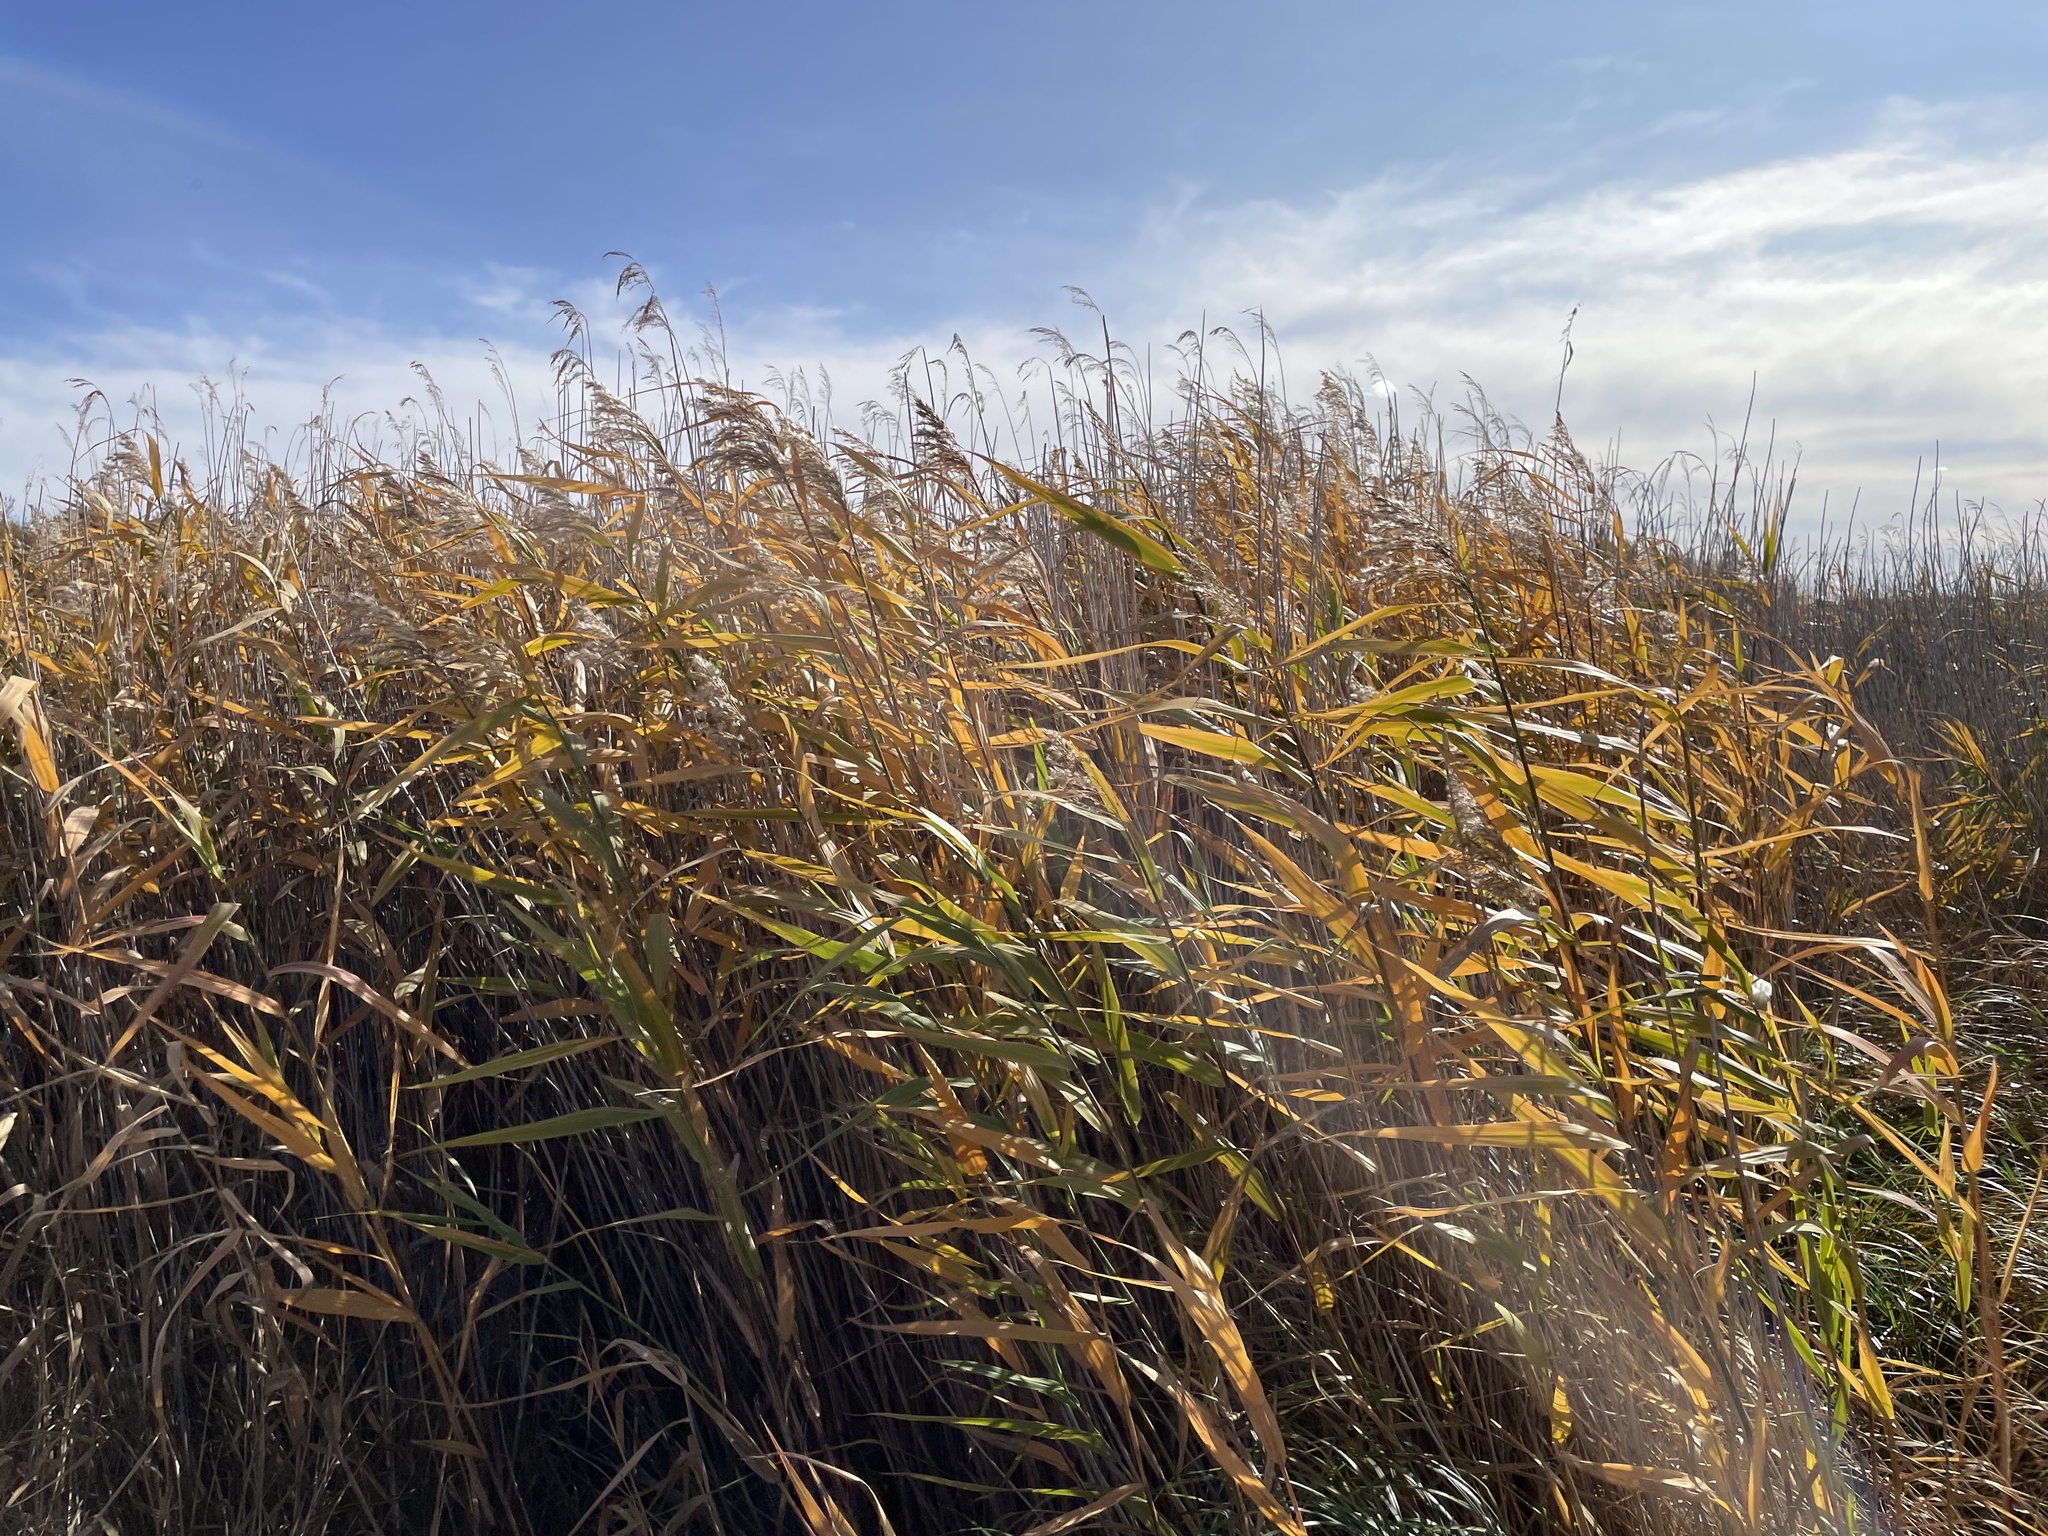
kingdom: Plantae
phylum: Tracheophyta
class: Liliopsida
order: Poales
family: Poaceae
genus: Phragmites
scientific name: Phragmites australis
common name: Common reed
